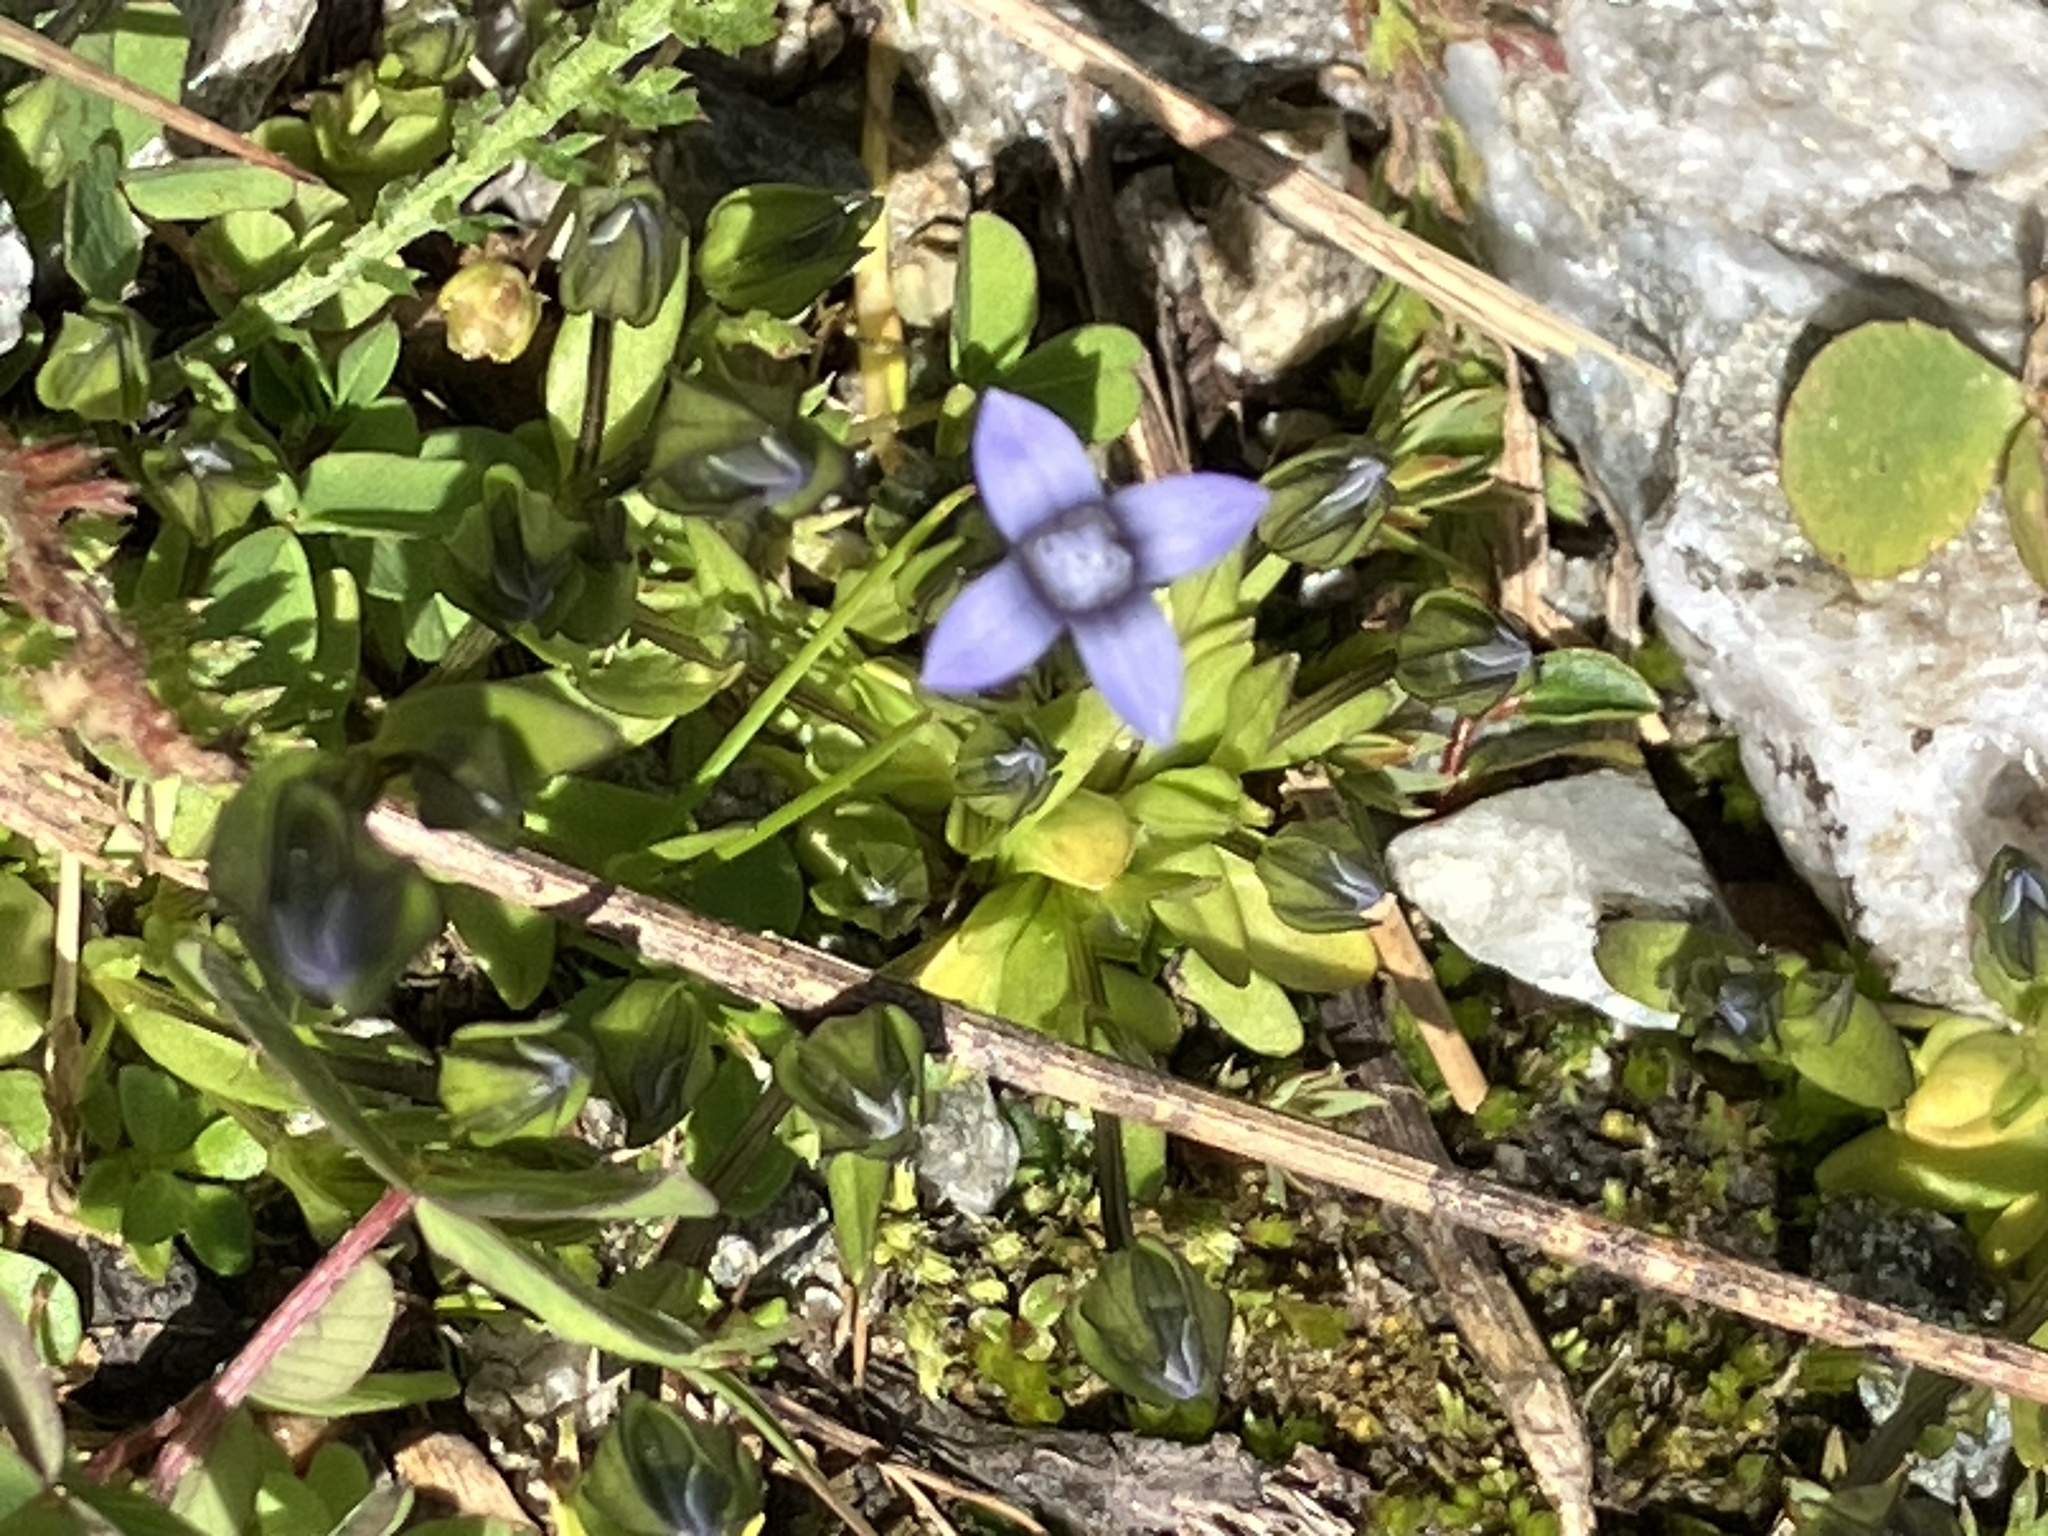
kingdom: Plantae
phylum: Tracheophyta
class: Magnoliopsida
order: Gentianales
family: Gentianaceae
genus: Comastoma
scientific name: Comastoma tenellum
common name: Dane's dwarf gentian
